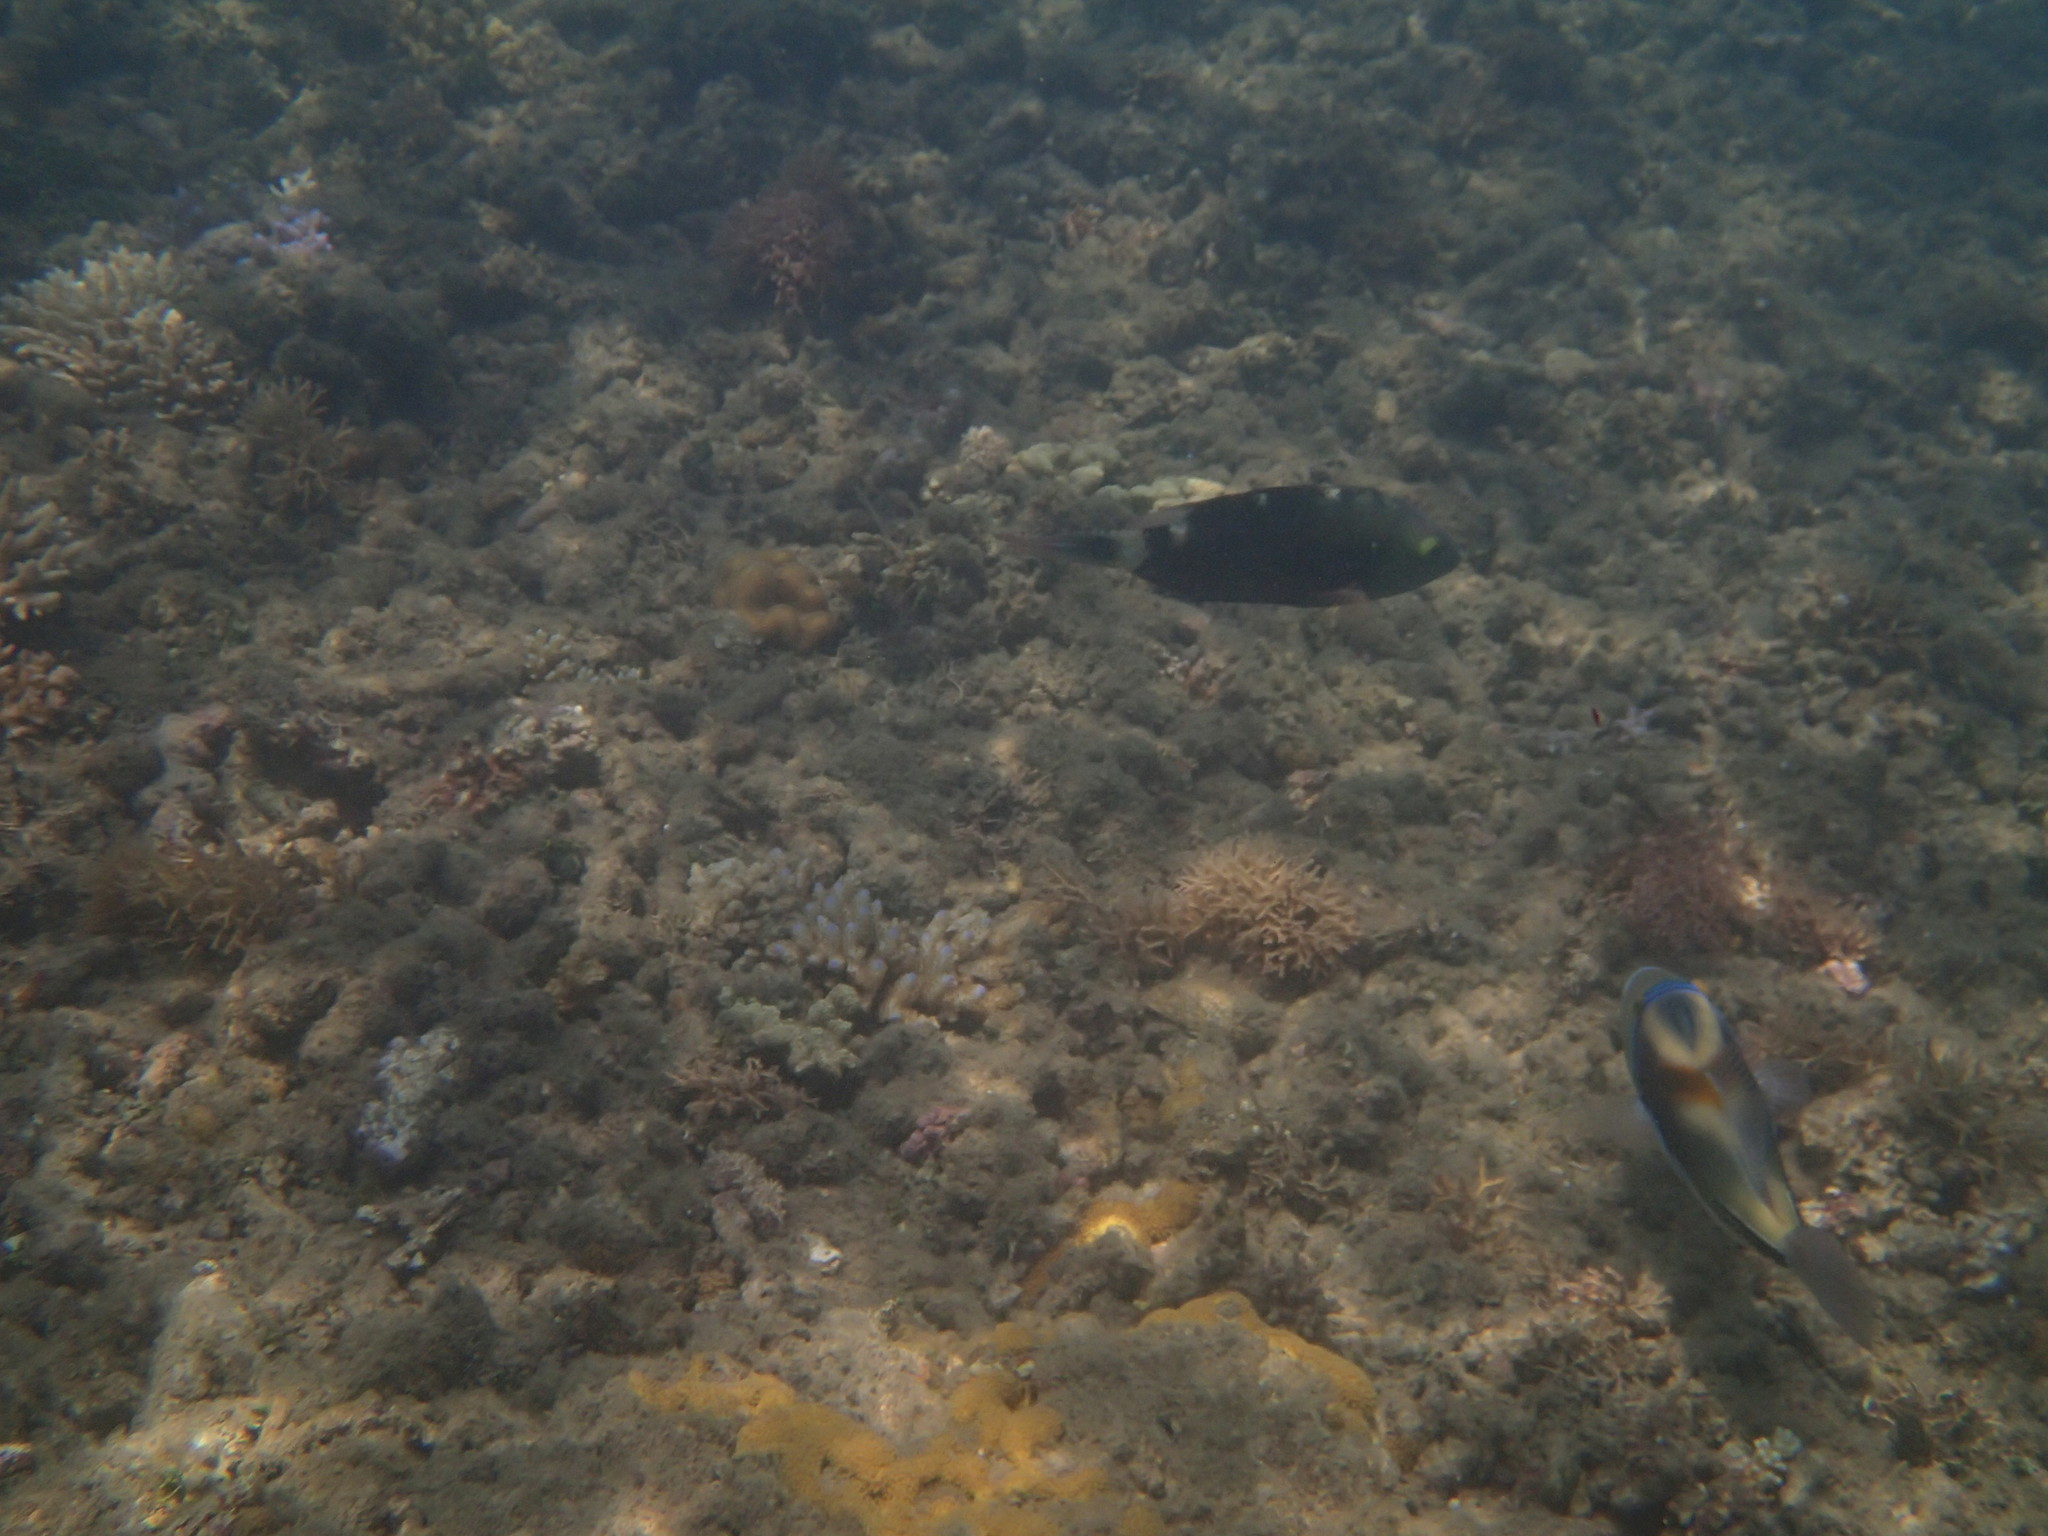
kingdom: Animalia
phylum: Chordata
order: Perciformes
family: Labridae
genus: Cheilinus
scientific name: Cheilinus chlorourus
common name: Floral wrasse
